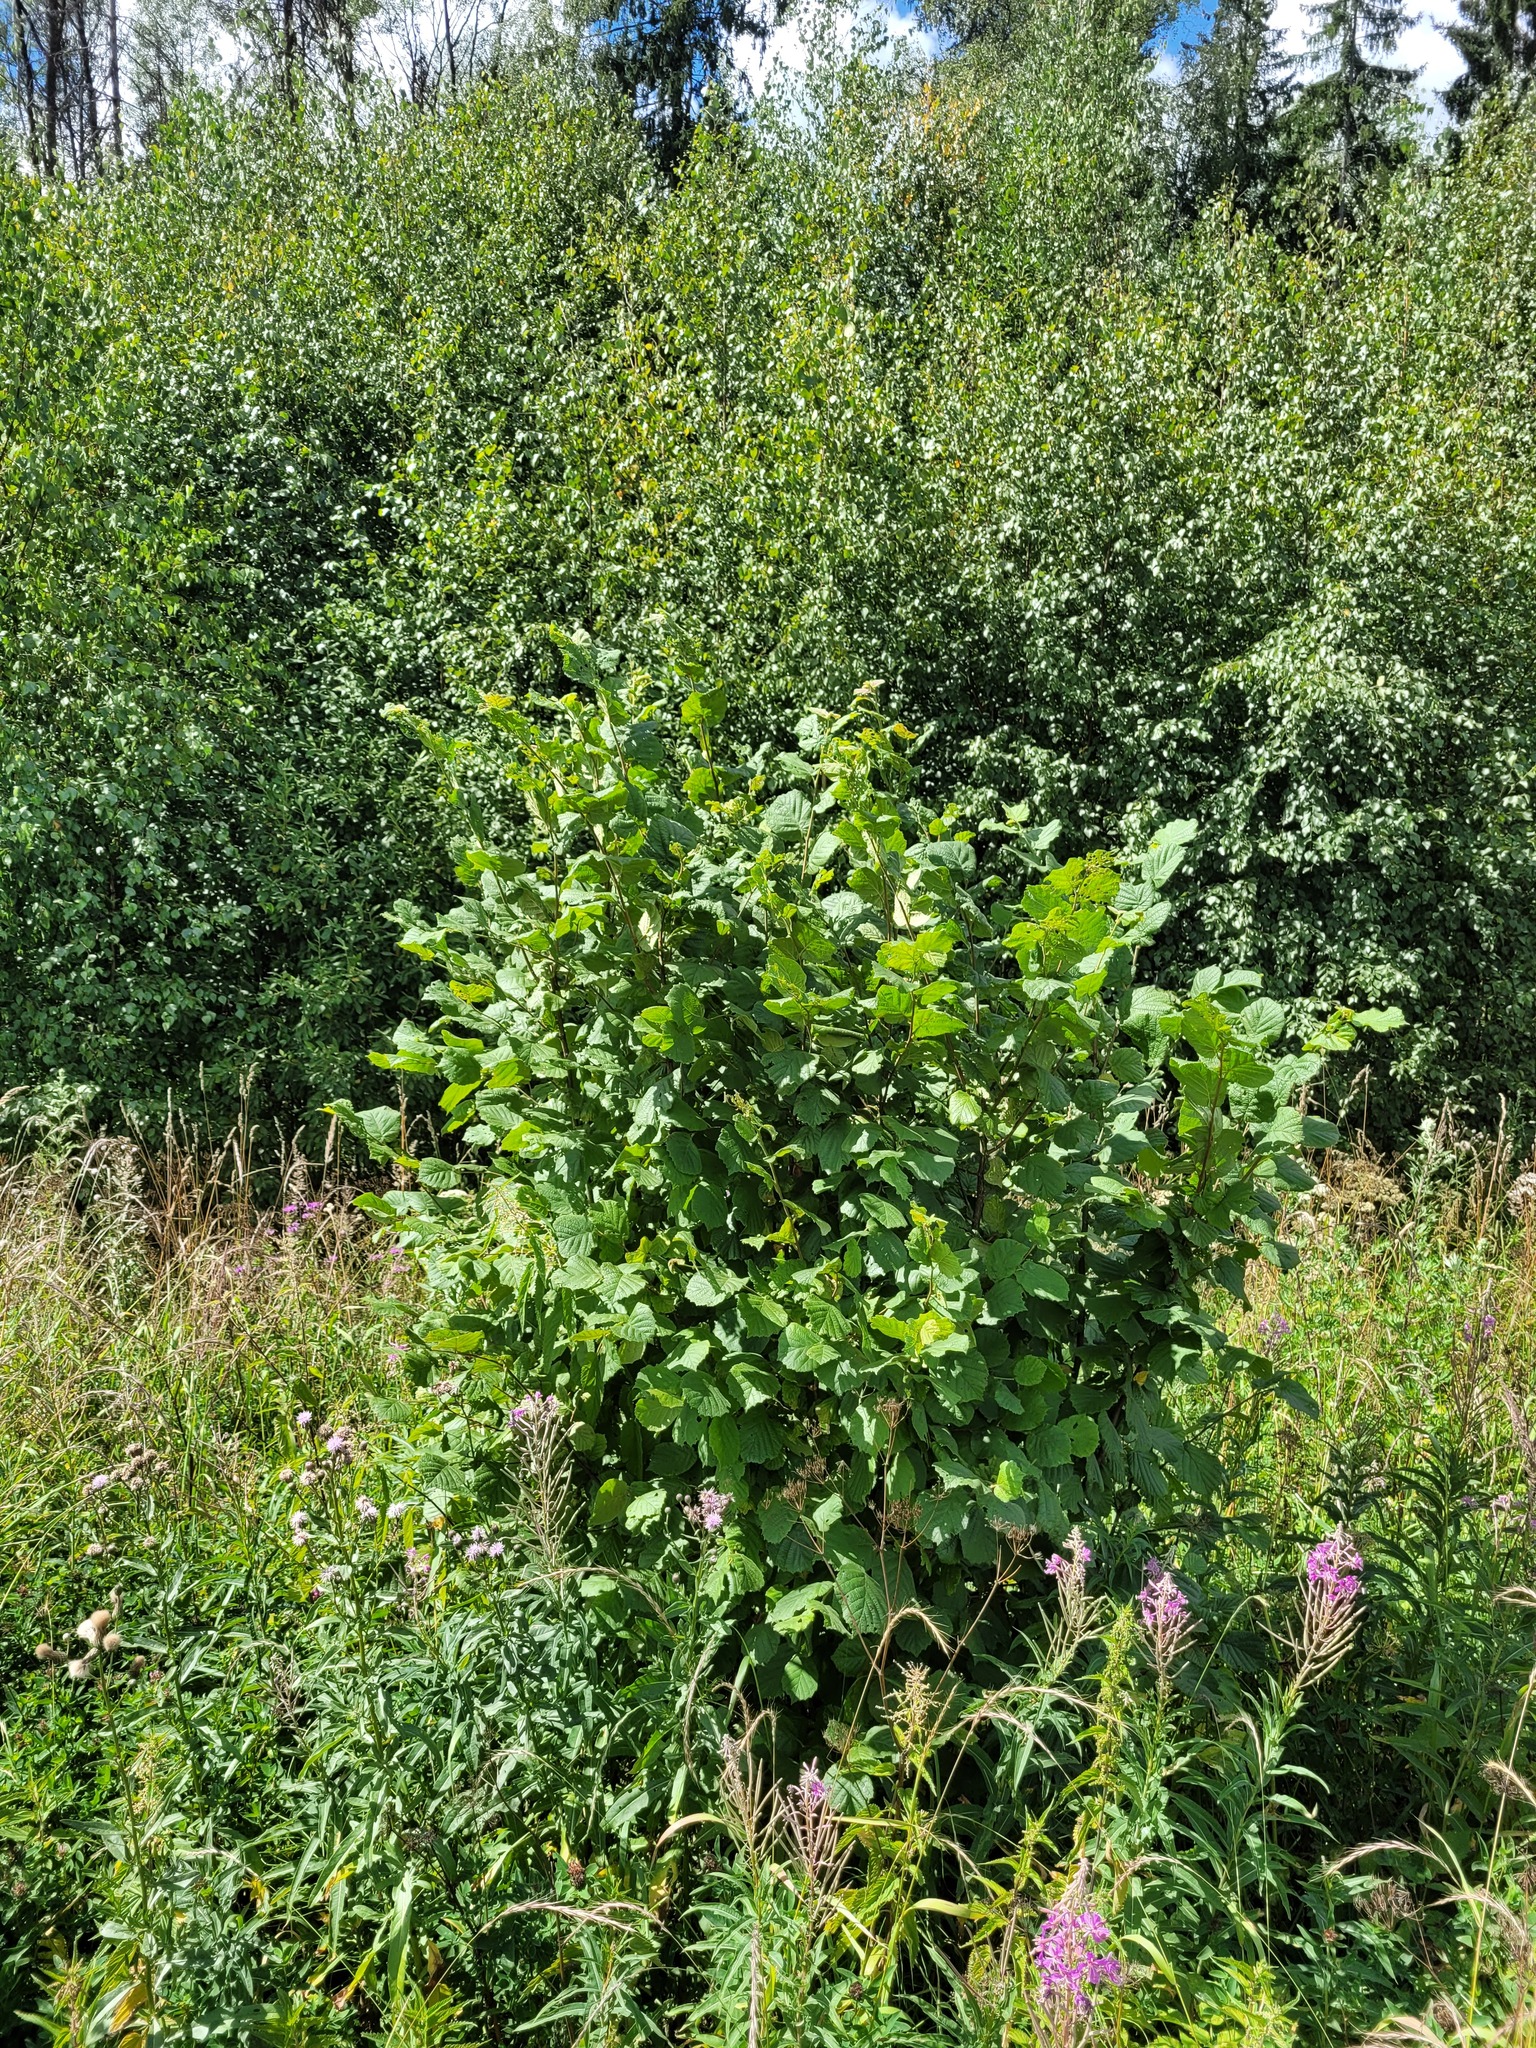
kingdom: Plantae
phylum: Tracheophyta
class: Magnoliopsida
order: Fagales
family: Betulaceae
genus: Corylus
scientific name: Corylus avellana
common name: European hazel
